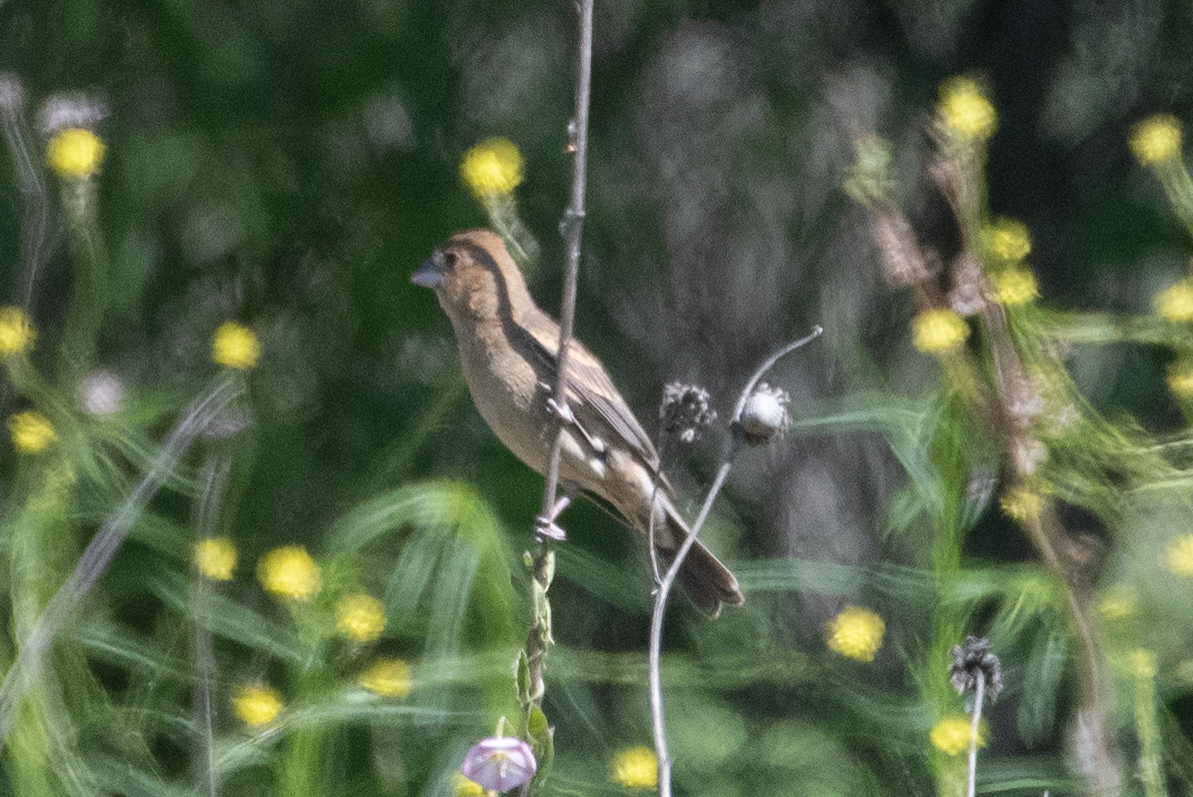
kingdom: Animalia
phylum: Chordata
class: Aves
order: Passeriformes
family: Cardinalidae
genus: Passerina
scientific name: Passerina caerulea
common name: Blue grosbeak
